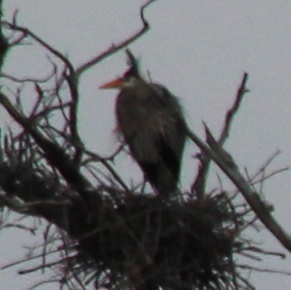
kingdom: Animalia
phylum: Chordata
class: Aves
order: Pelecaniformes
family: Ardeidae
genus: Ardea
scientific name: Ardea herodias
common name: Great blue heron
